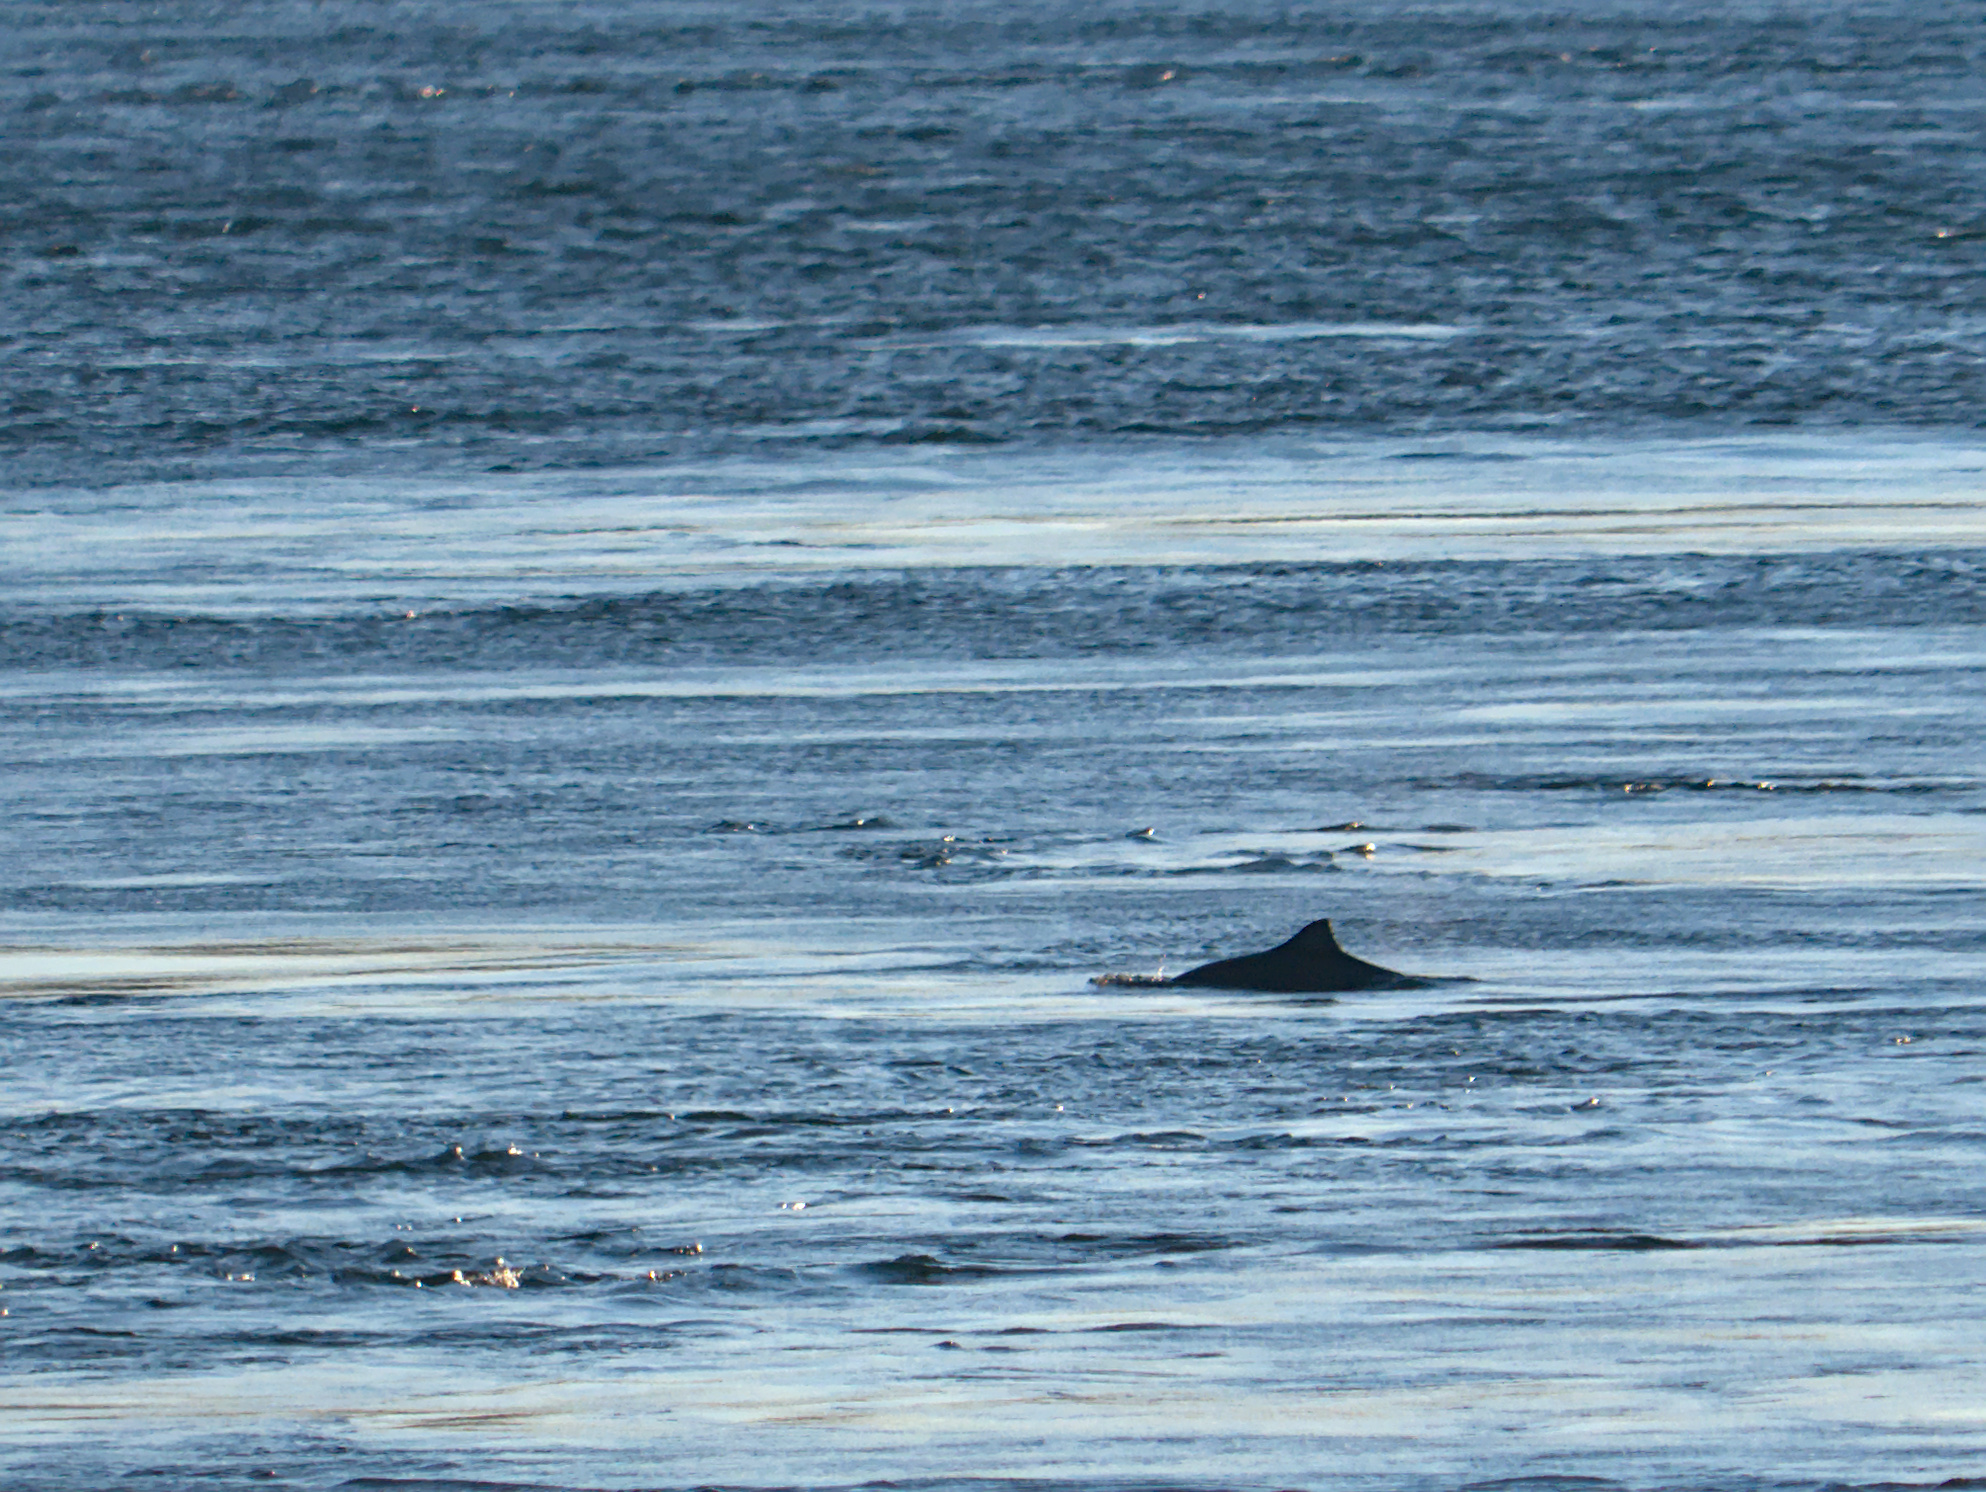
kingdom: Animalia
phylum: Chordata
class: Mammalia
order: Cetacea
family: Phocoenidae
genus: Phocoena
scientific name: Phocoena phocoena
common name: Harbor porpoise
